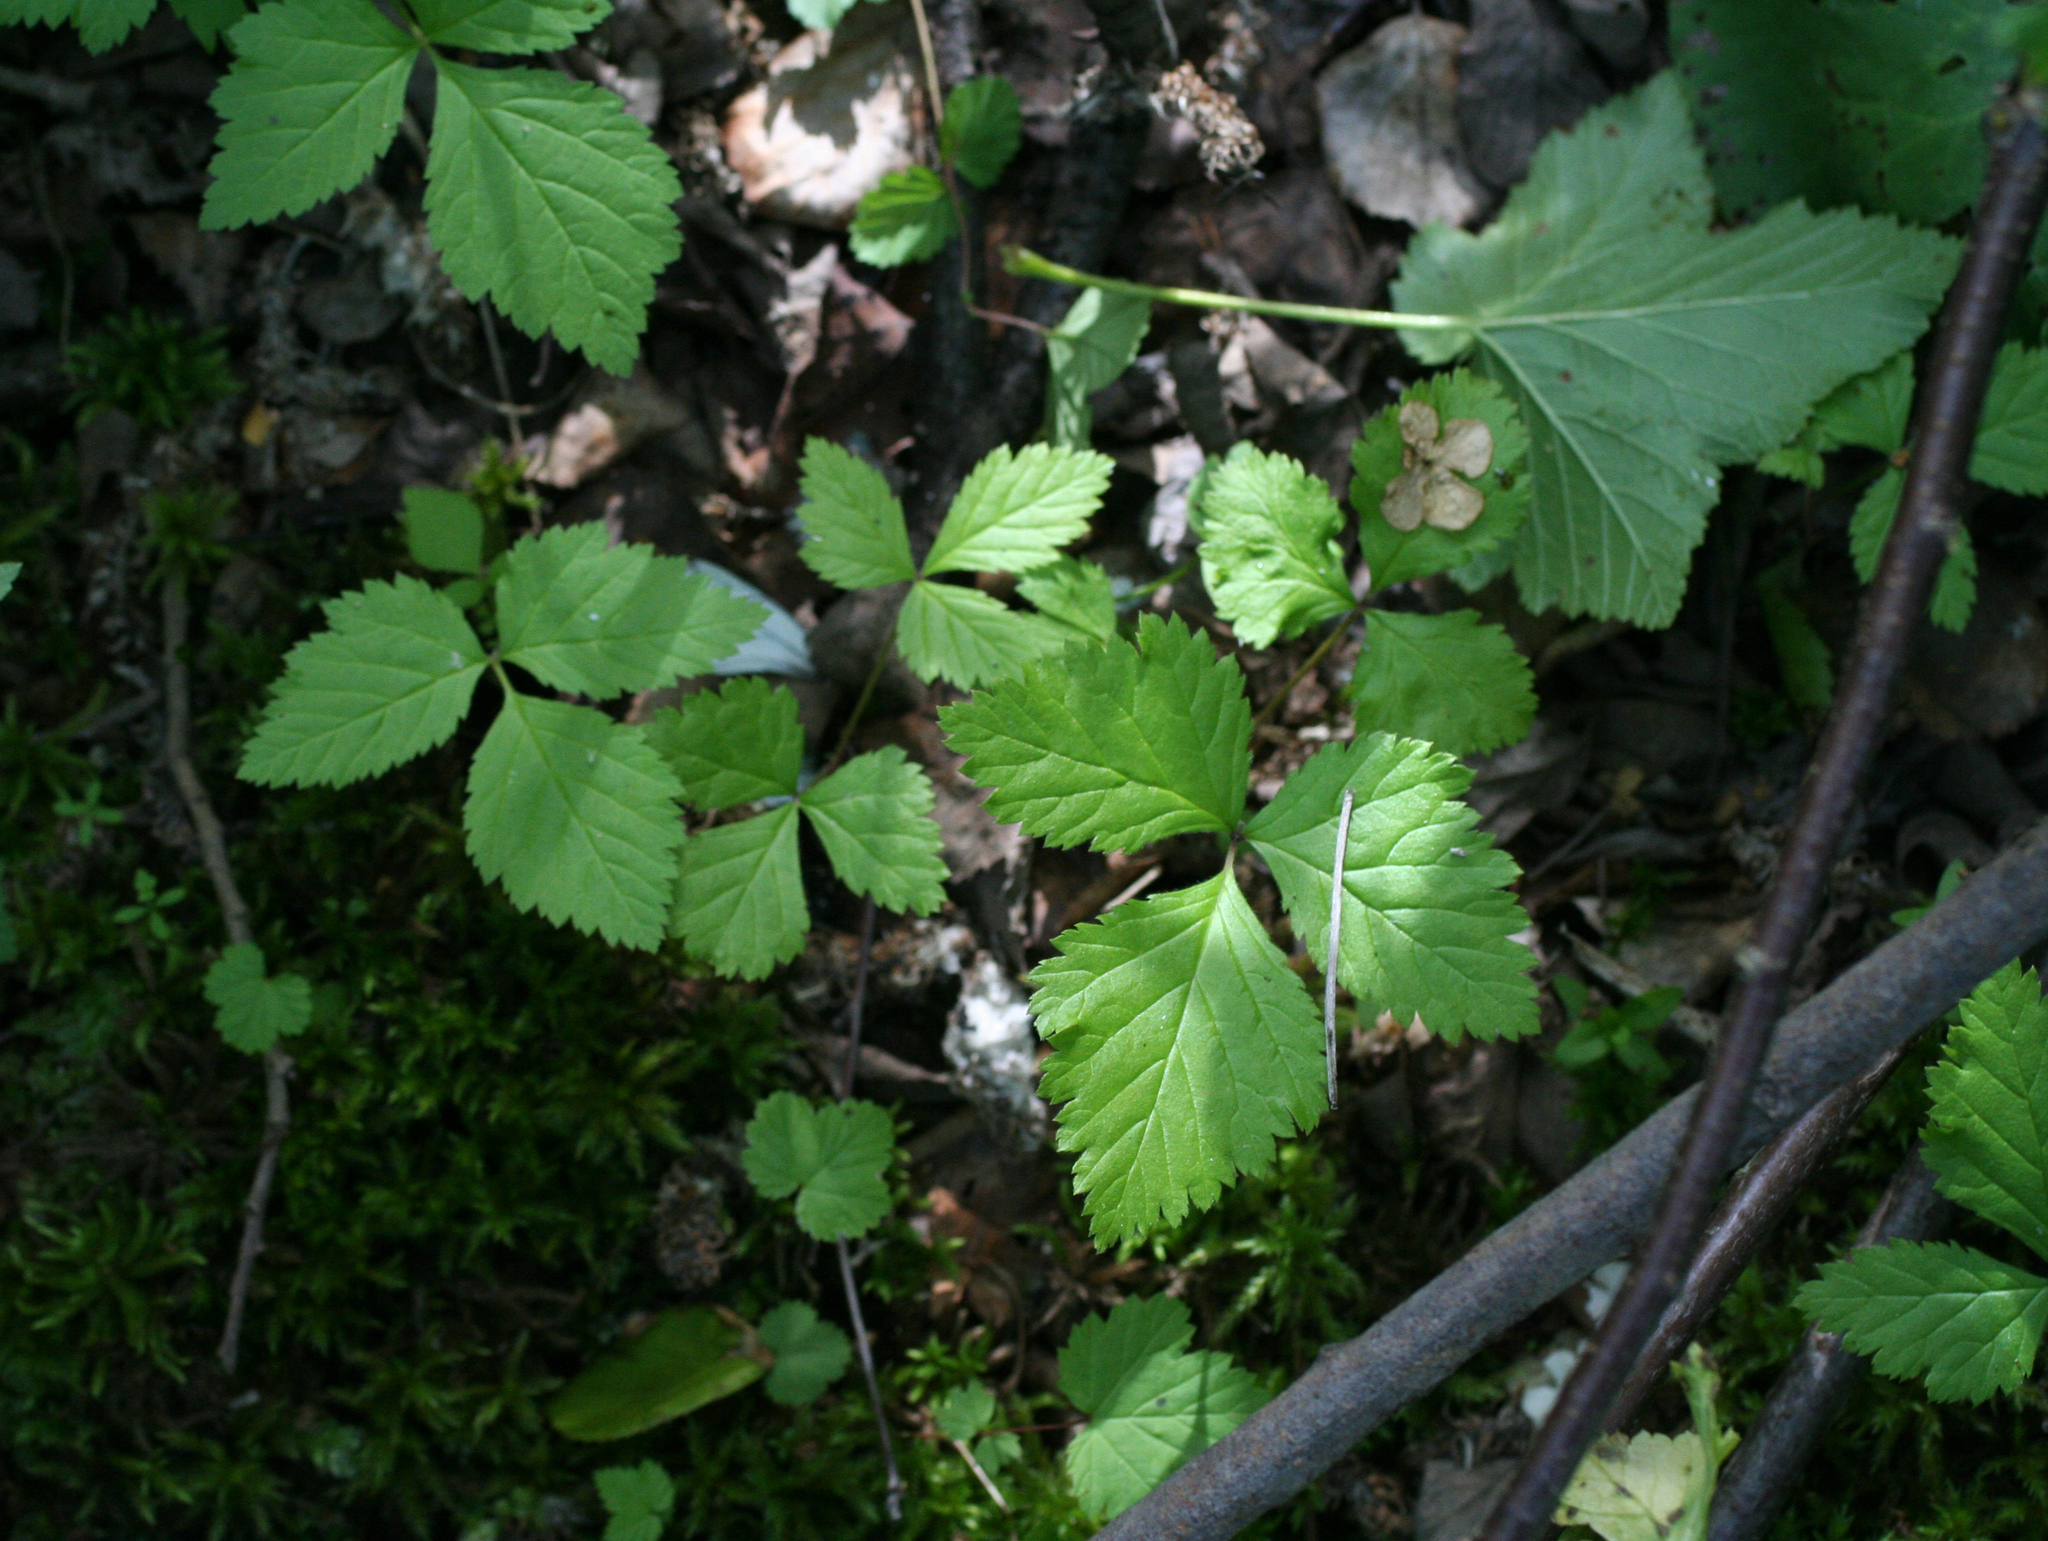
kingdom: Plantae
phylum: Tracheophyta
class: Magnoliopsida
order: Rosales
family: Rosaceae
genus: Rubus
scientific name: Rubus saxatilis
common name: Stone bramble
